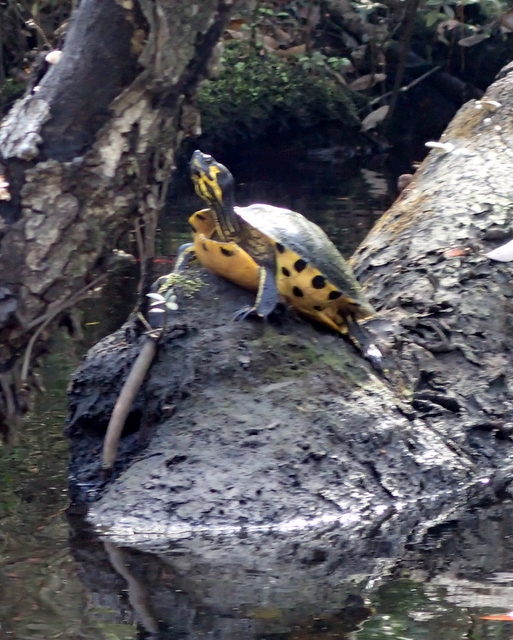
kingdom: Animalia
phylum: Chordata
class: Testudines
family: Emydidae
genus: Trachemys
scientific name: Trachemys scripta
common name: Slider
